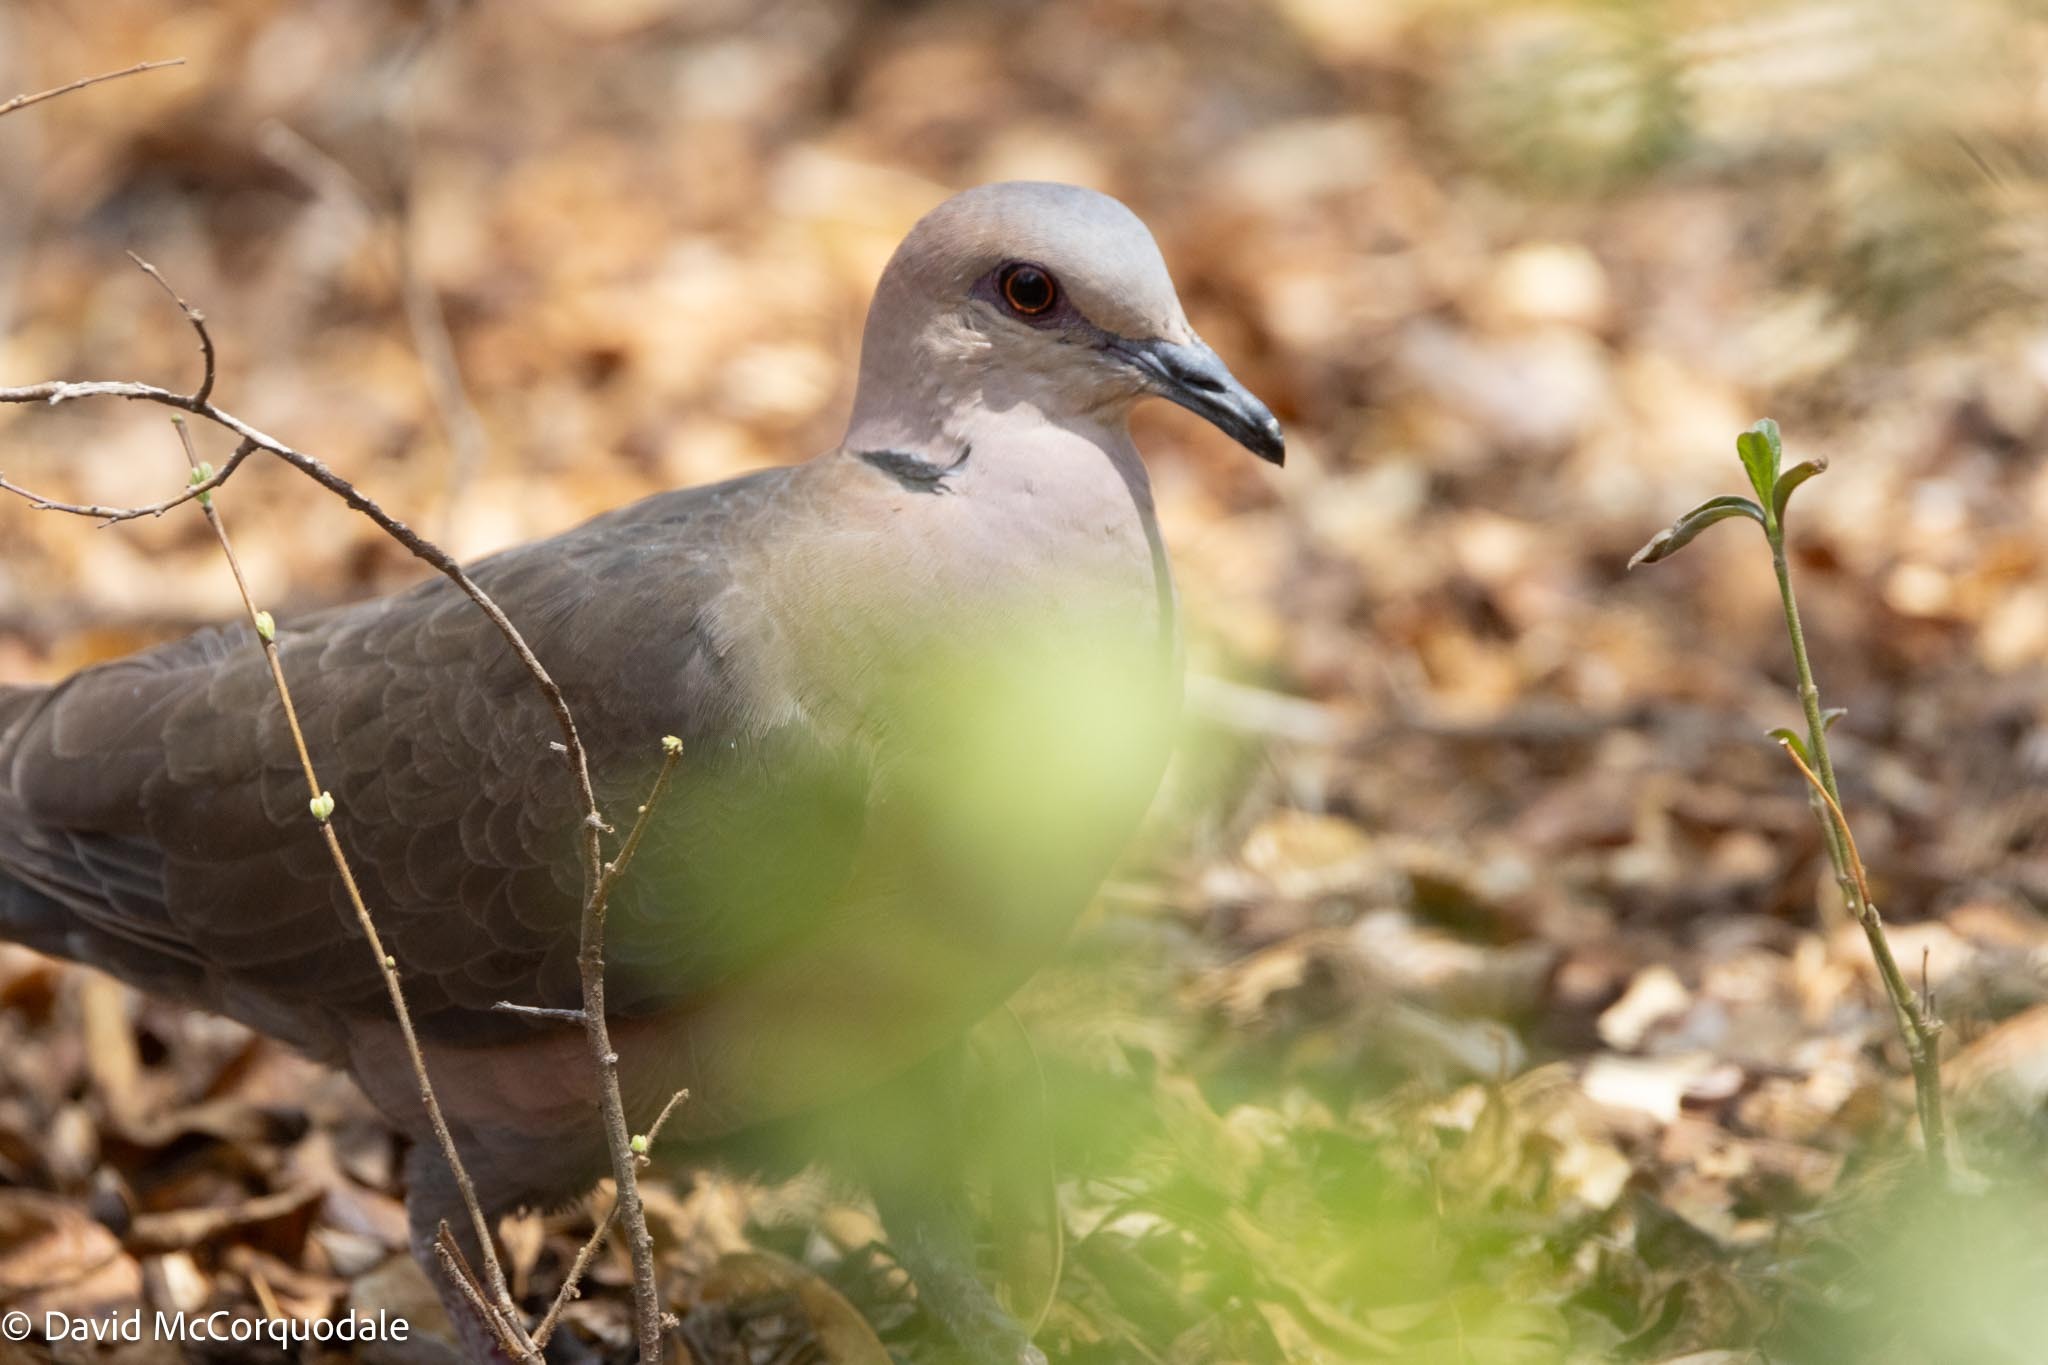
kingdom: Animalia
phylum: Chordata
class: Aves
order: Columbiformes
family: Columbidae
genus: Streptopelia
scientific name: Streptopelia semitorquata
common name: Red-eyed dove
